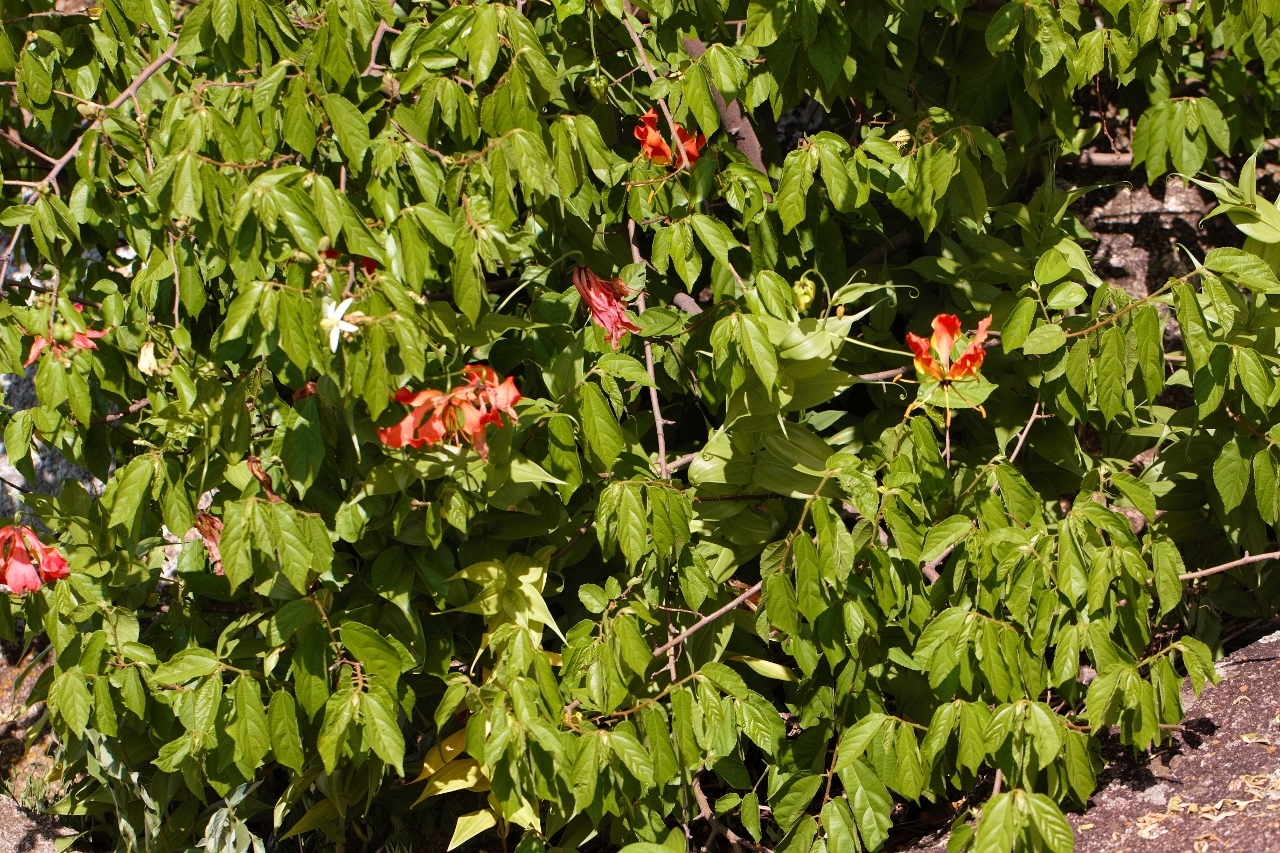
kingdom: Plantae
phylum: Tracheophyta
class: Liliopsida
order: Liliales
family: Colchicaceae
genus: Gloriosa
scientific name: Gloriosa superba
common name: Flame lily
